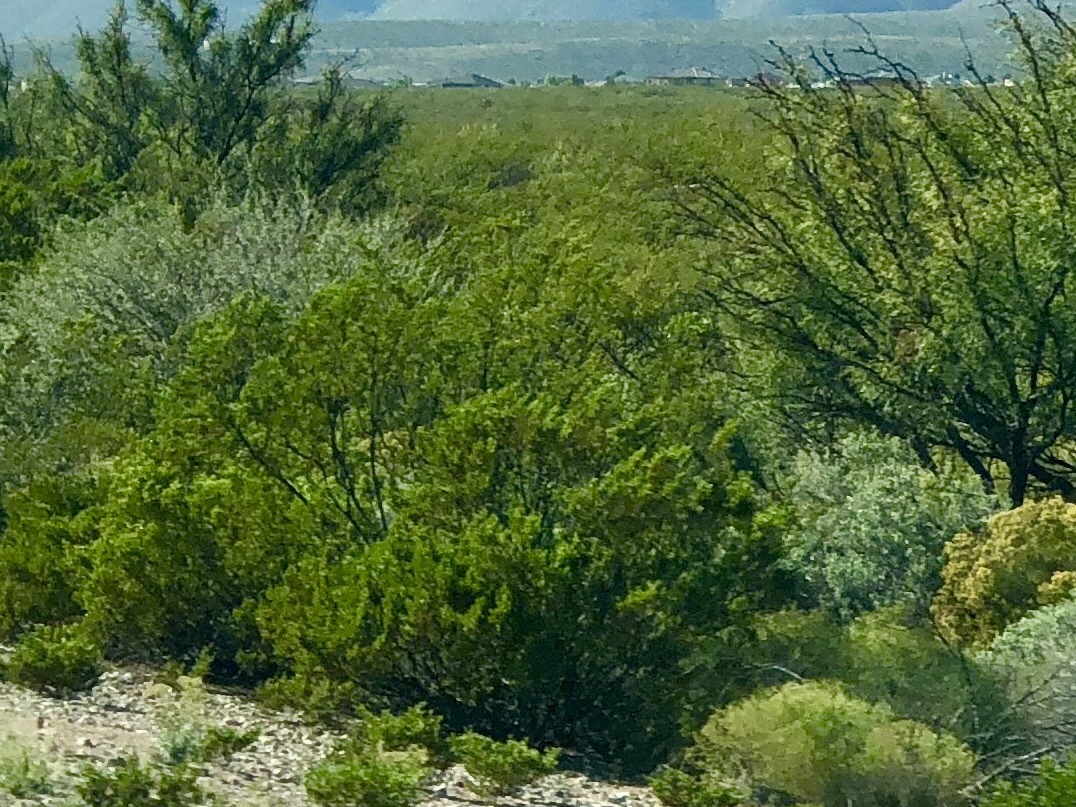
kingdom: Plantae
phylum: Tracheophyta
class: Magnoliopsida
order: Zygophyllales
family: Zygophyllaceae
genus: Larrea
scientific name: Larrea tridentata
